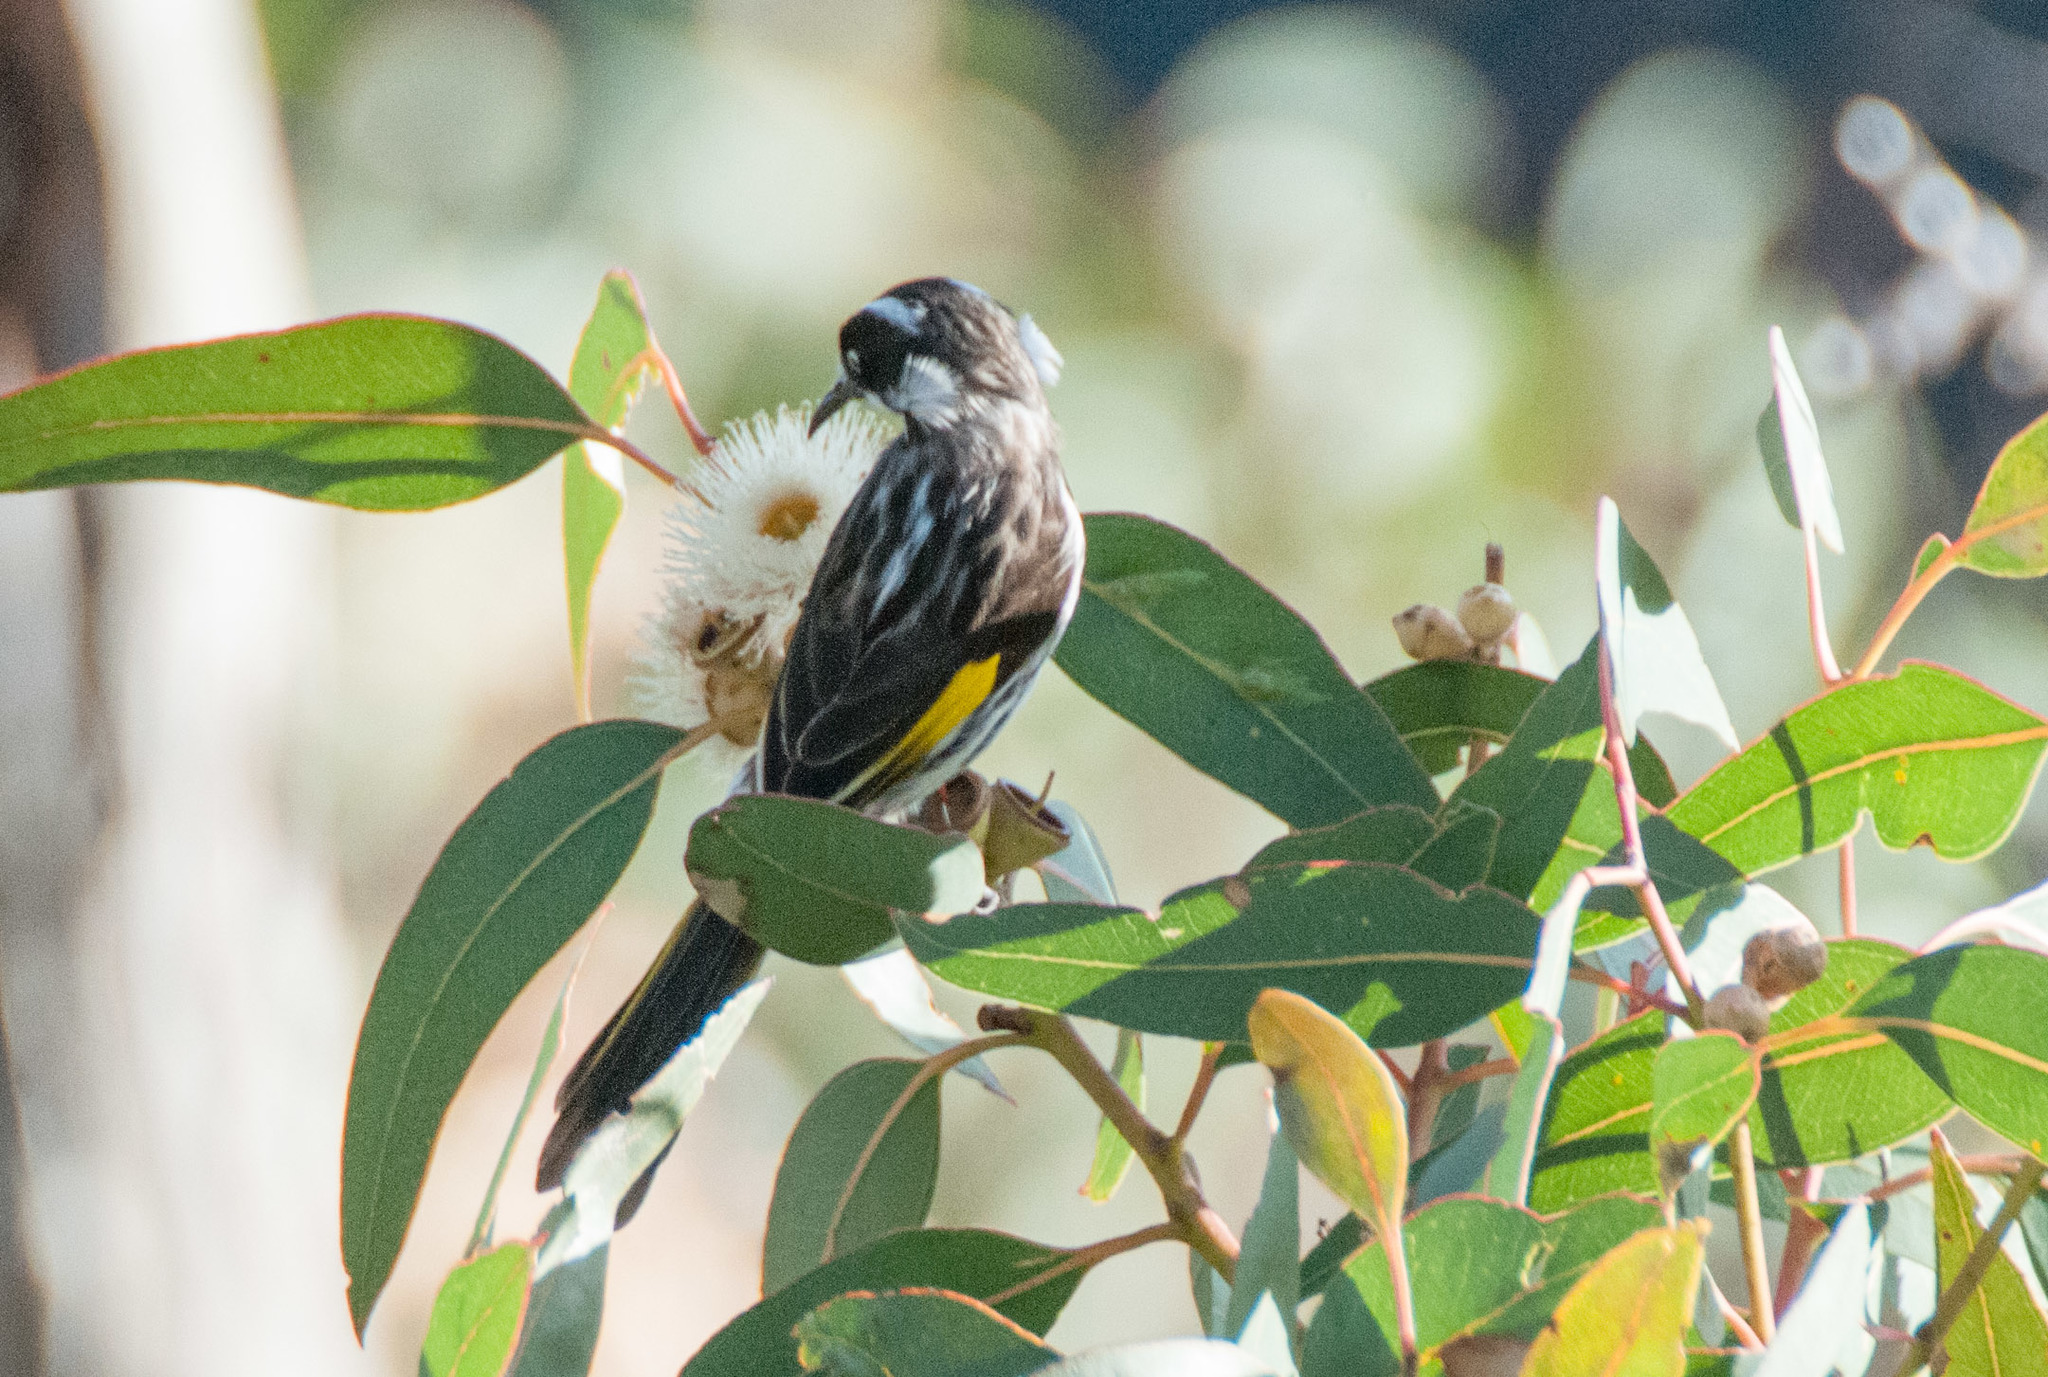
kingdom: Animalia
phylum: Chordata
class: Aves
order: Passeriformes
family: Meliphagidae
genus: Phylidonyris
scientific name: Phylidonyris novaehollandiae
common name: New holland honeyeater
